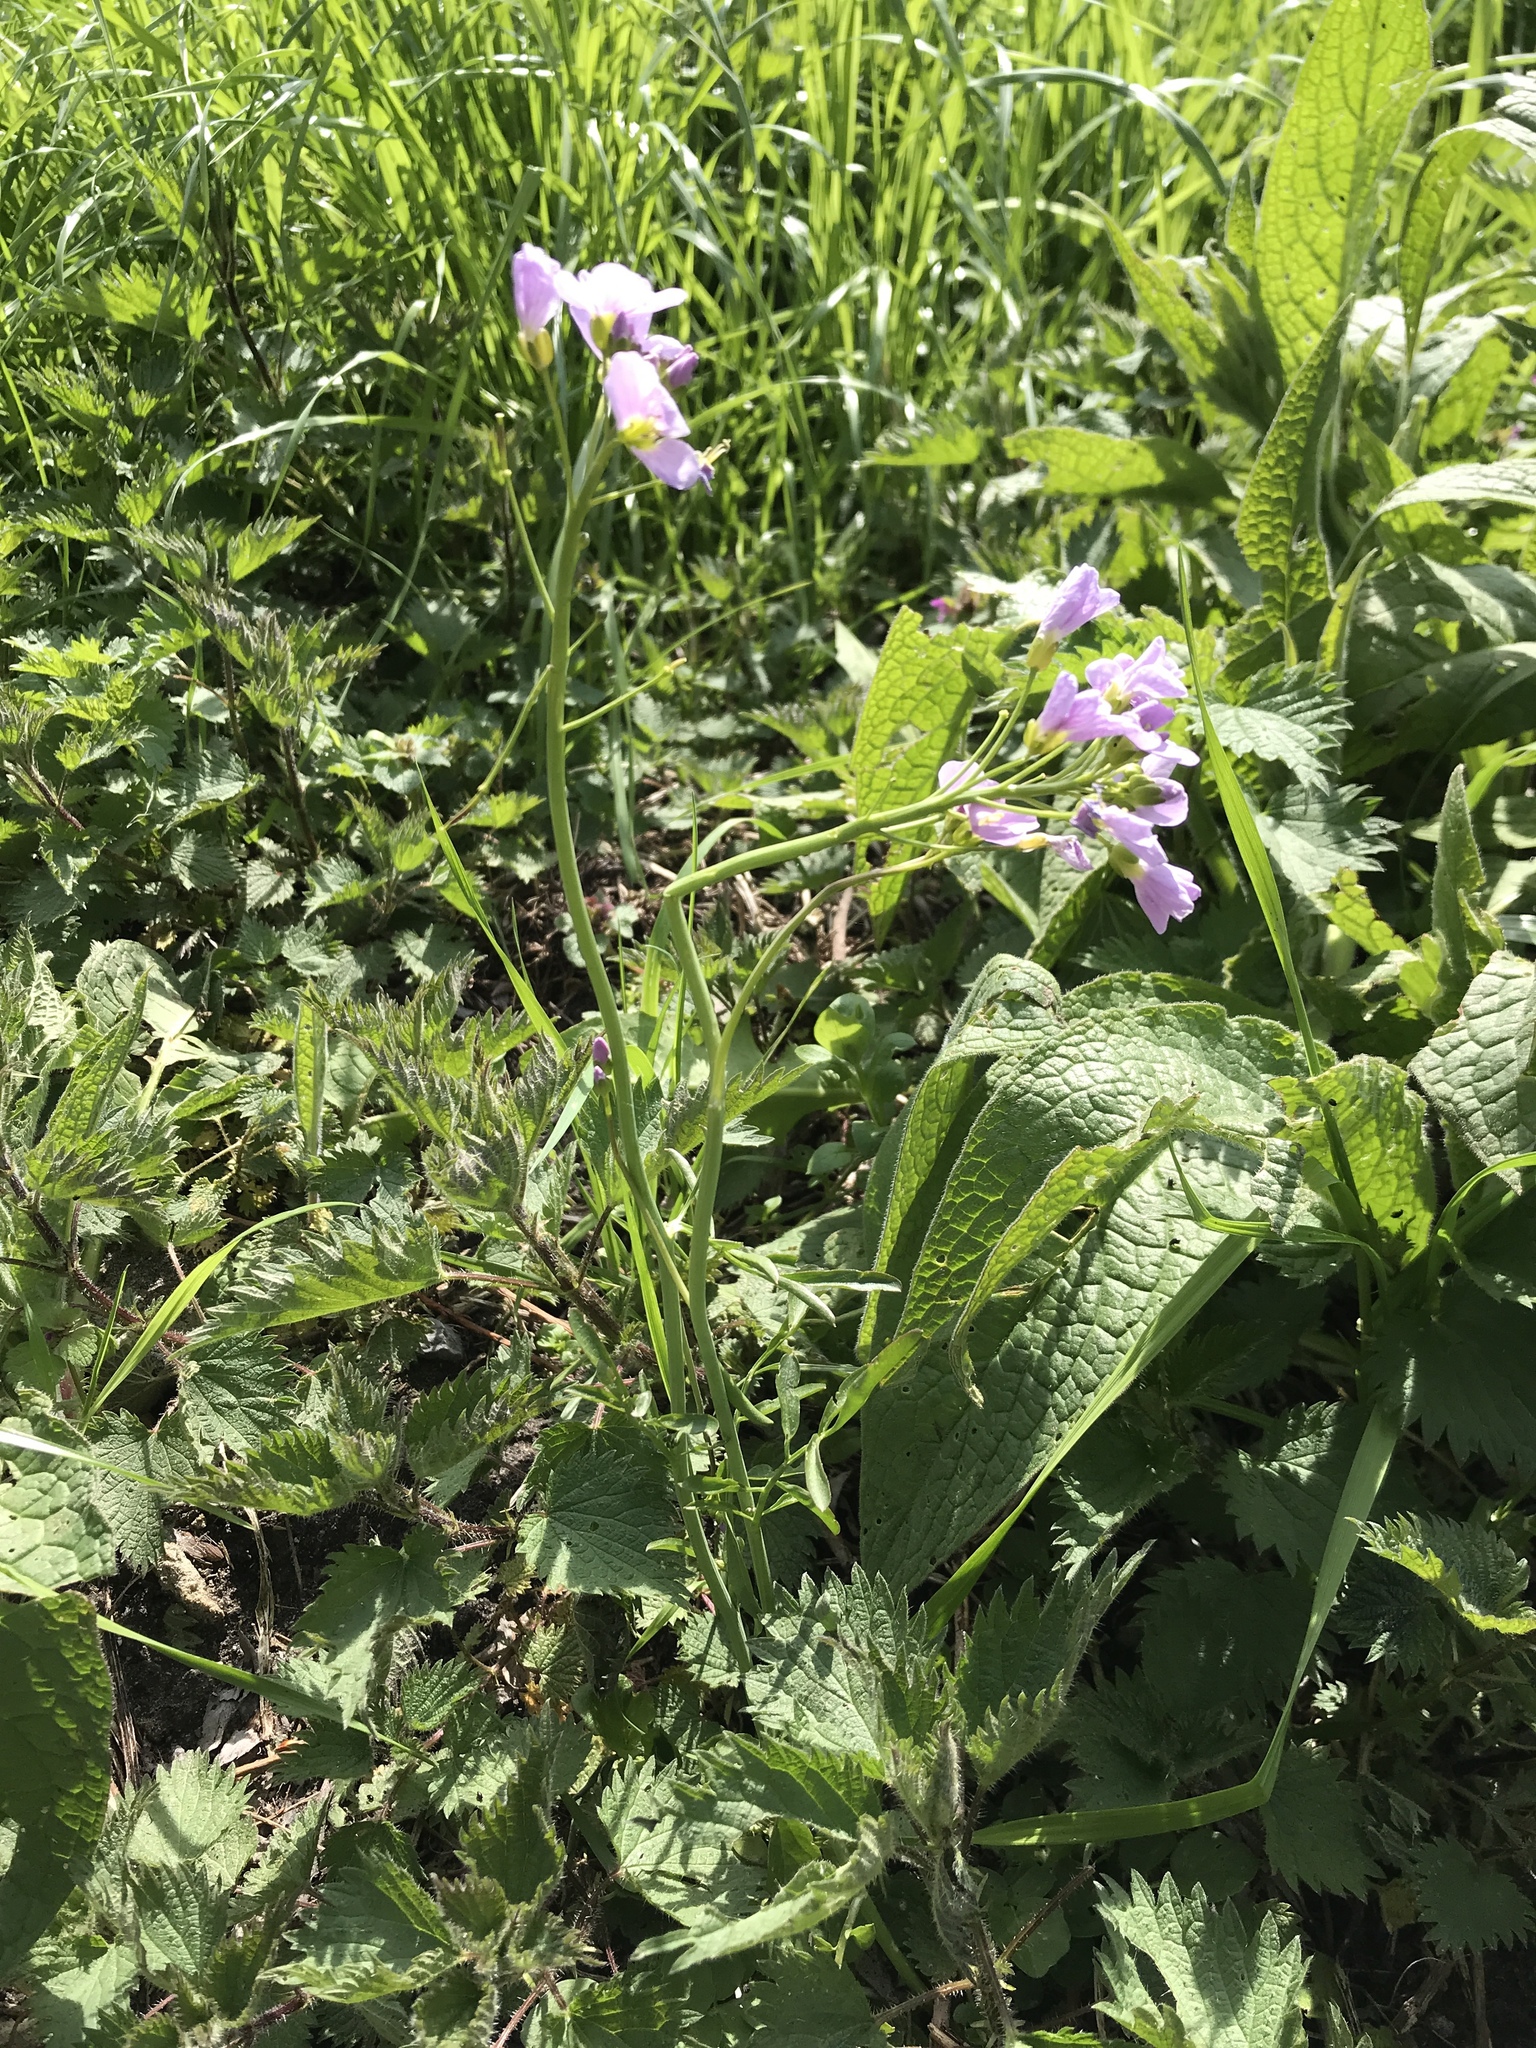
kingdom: Plantae
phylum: Tracheophyta
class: Magnoliopsida
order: Brassicales
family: Brassicaceae
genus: Cardamine
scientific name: Cardamine pratensis
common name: Cuckoo flower
